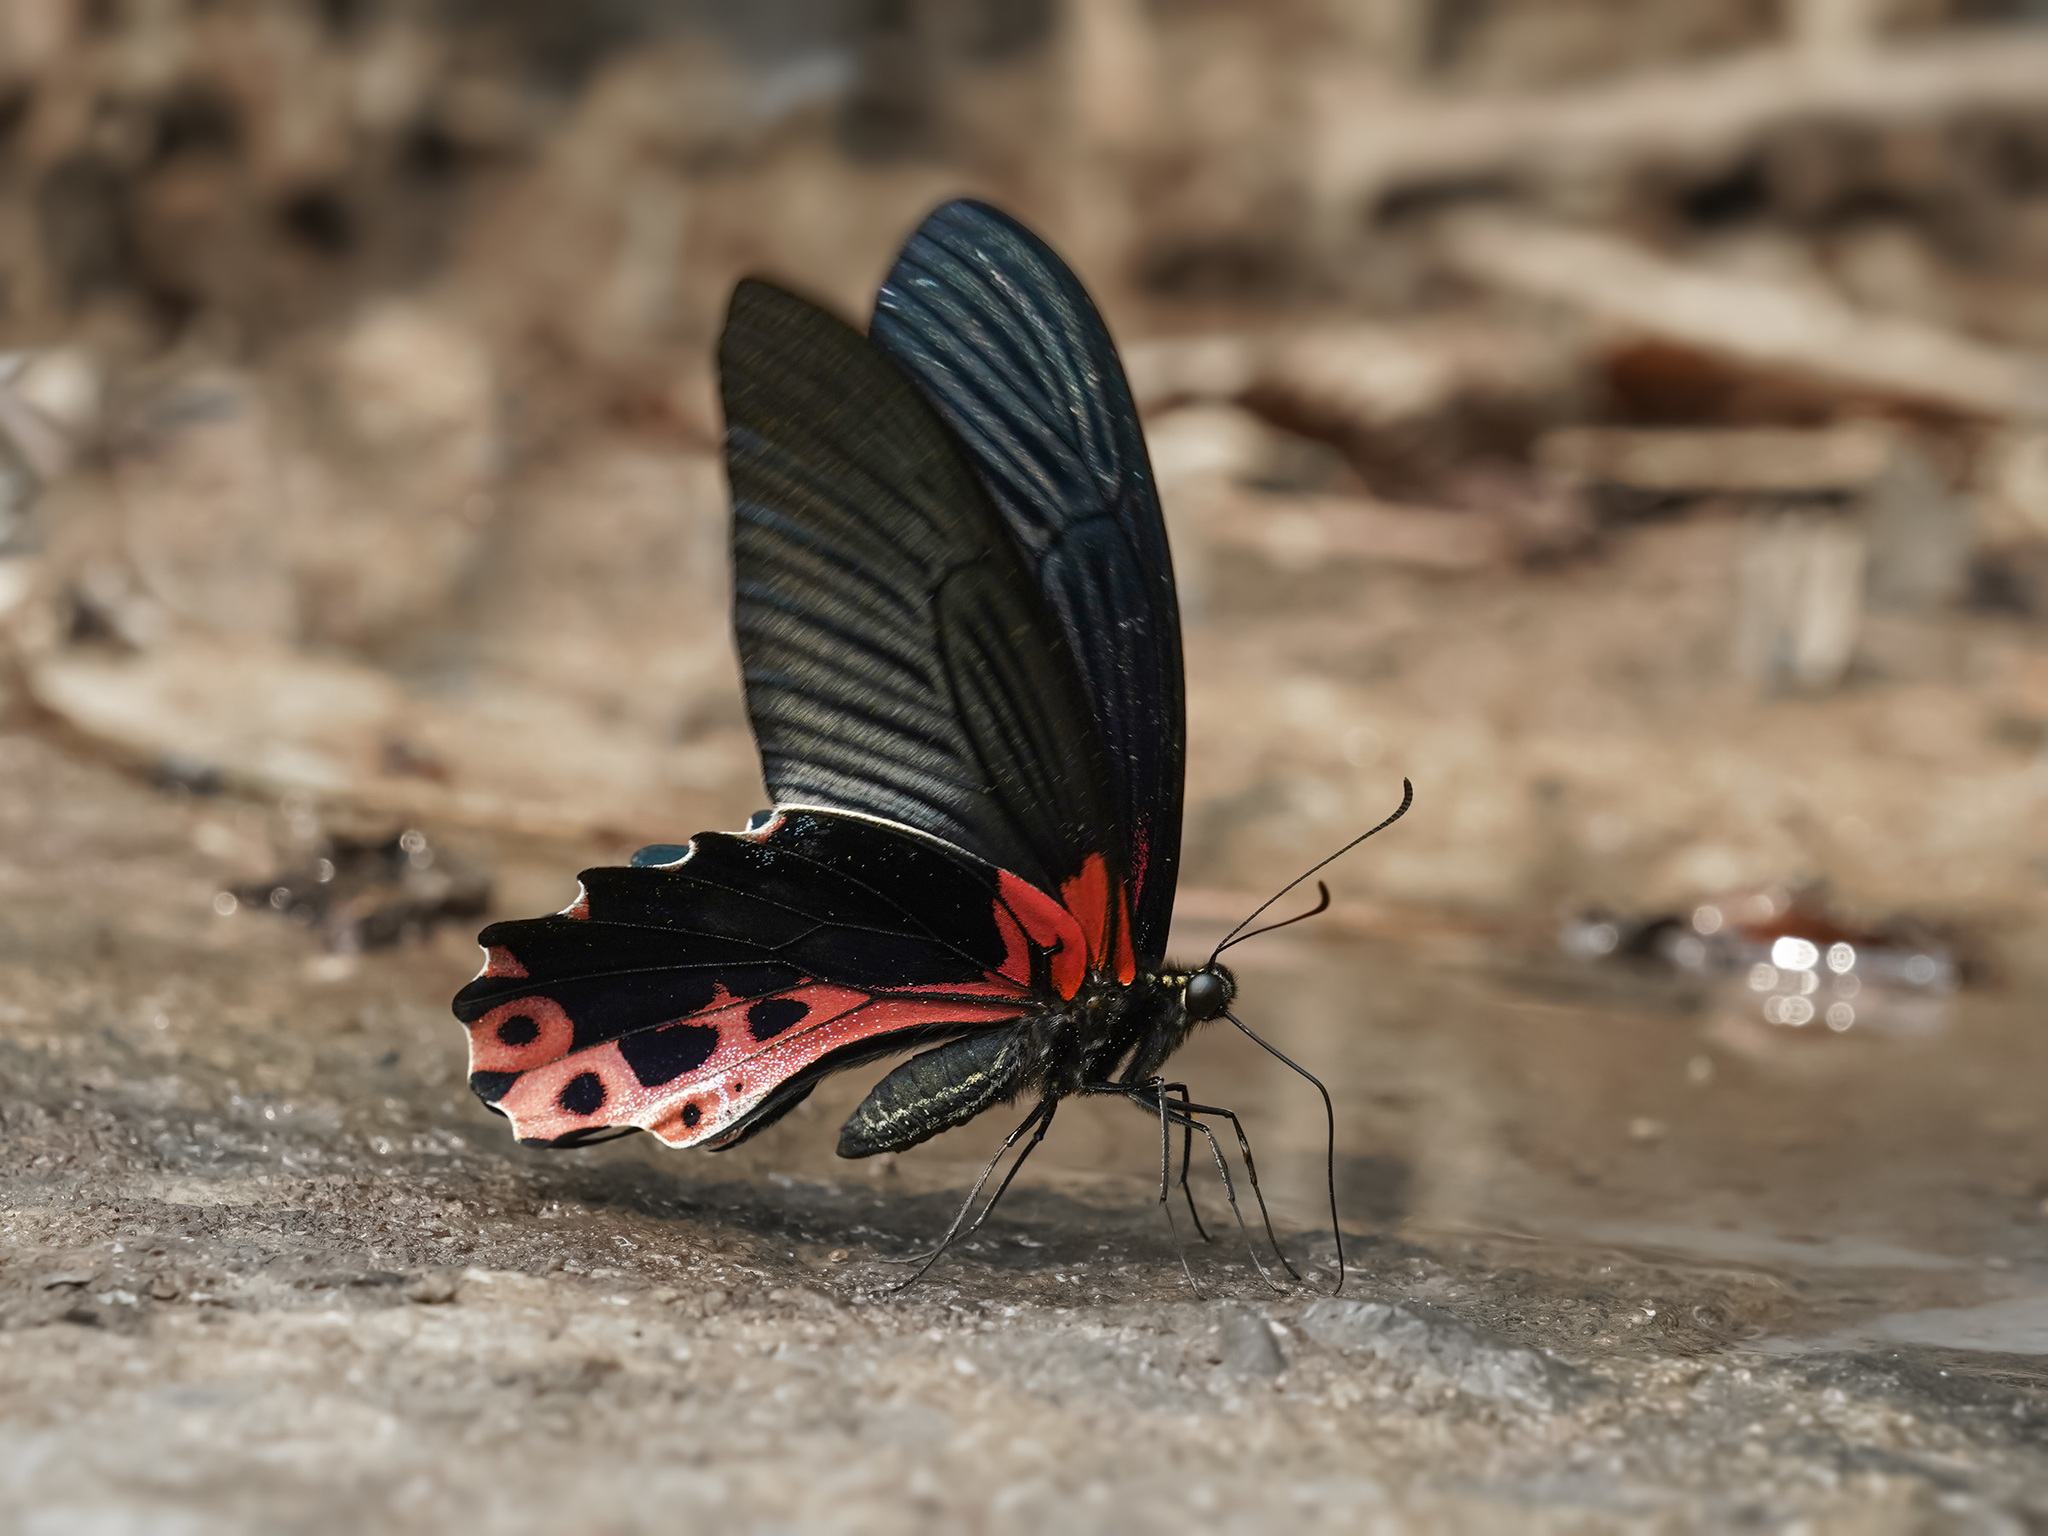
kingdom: Animalia
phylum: Arthropoda
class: Insecta
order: Lepidoptera
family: Papilionidae
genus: Papilio
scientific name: Papilio alcmenor
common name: Redbreast
